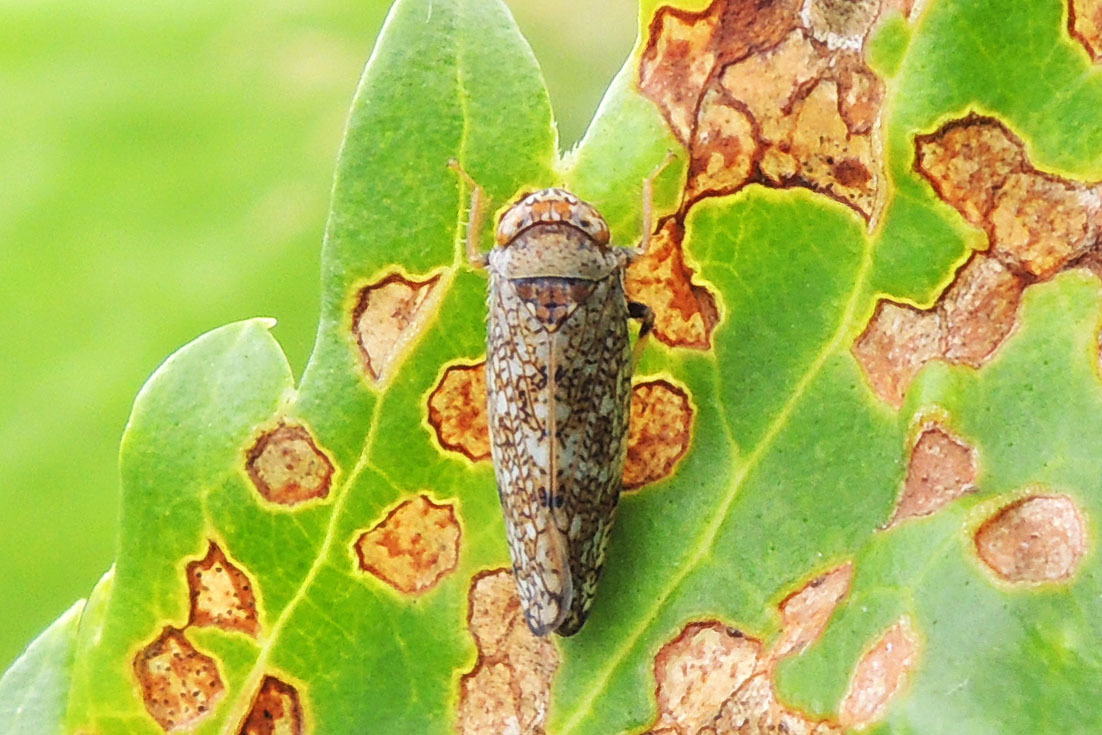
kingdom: Animalia
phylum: Arthropoda
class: Insecta
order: Hemiptera
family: Cicadellidae
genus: Orientus
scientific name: Orientus ishidae
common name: Japanese leafhopper
